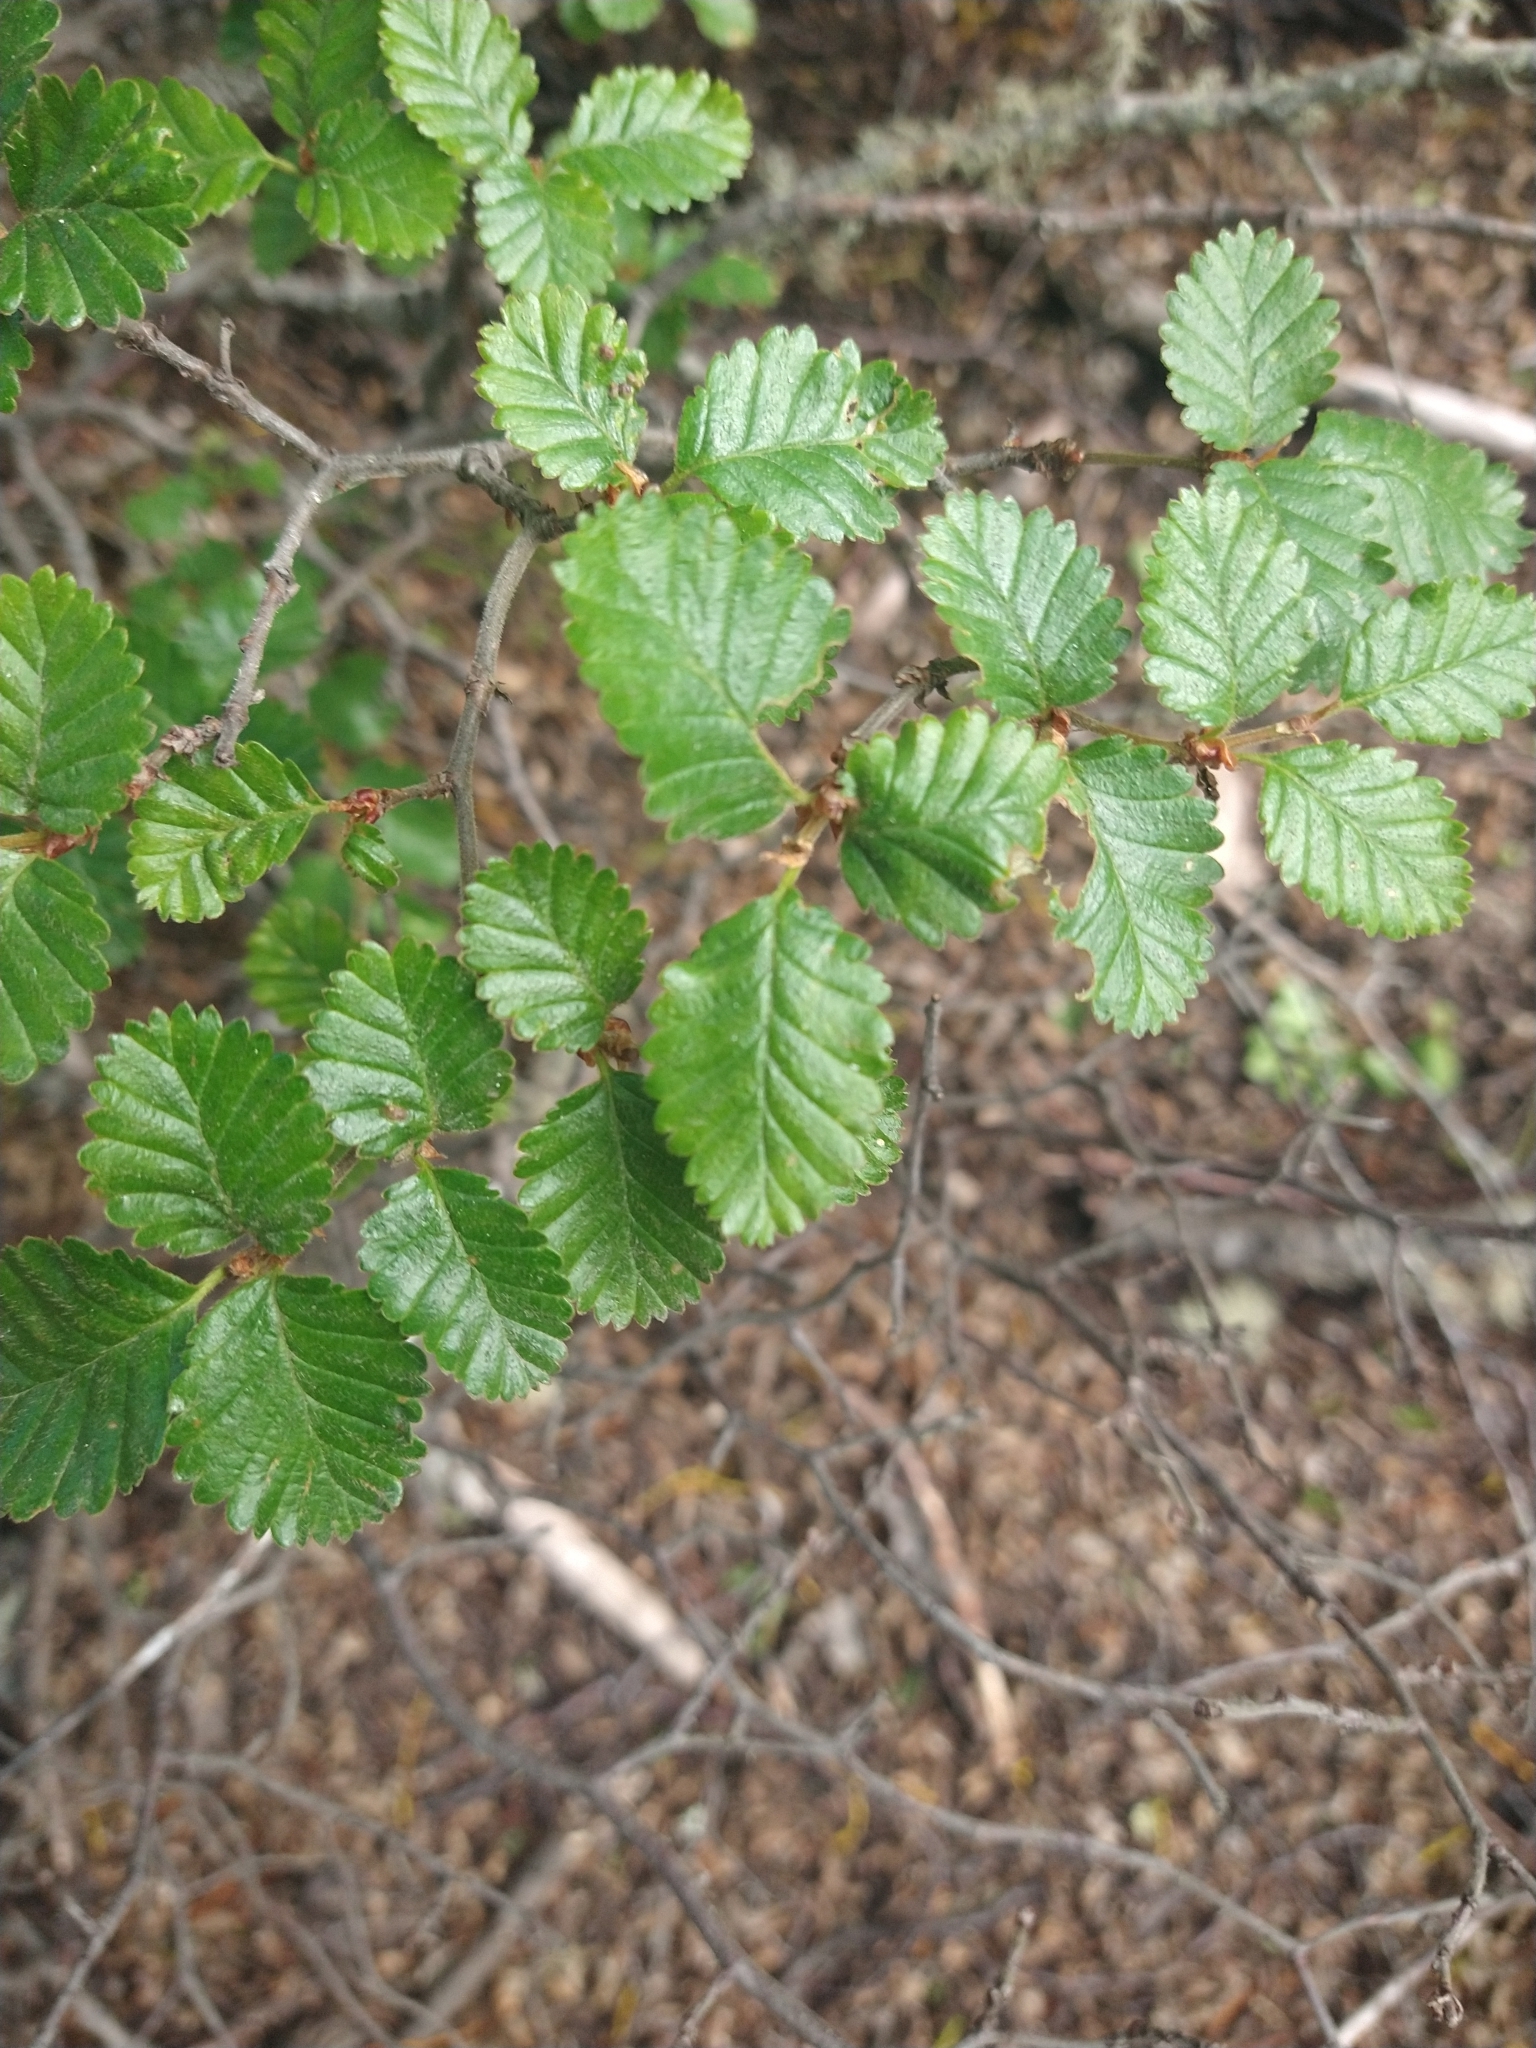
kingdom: Plantae
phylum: Tracheophyta
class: Magnoliopsida
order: Fagales
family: Nothofagaceae
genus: Nothofagus
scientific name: Nothofagus pumilio
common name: Lenga beech
